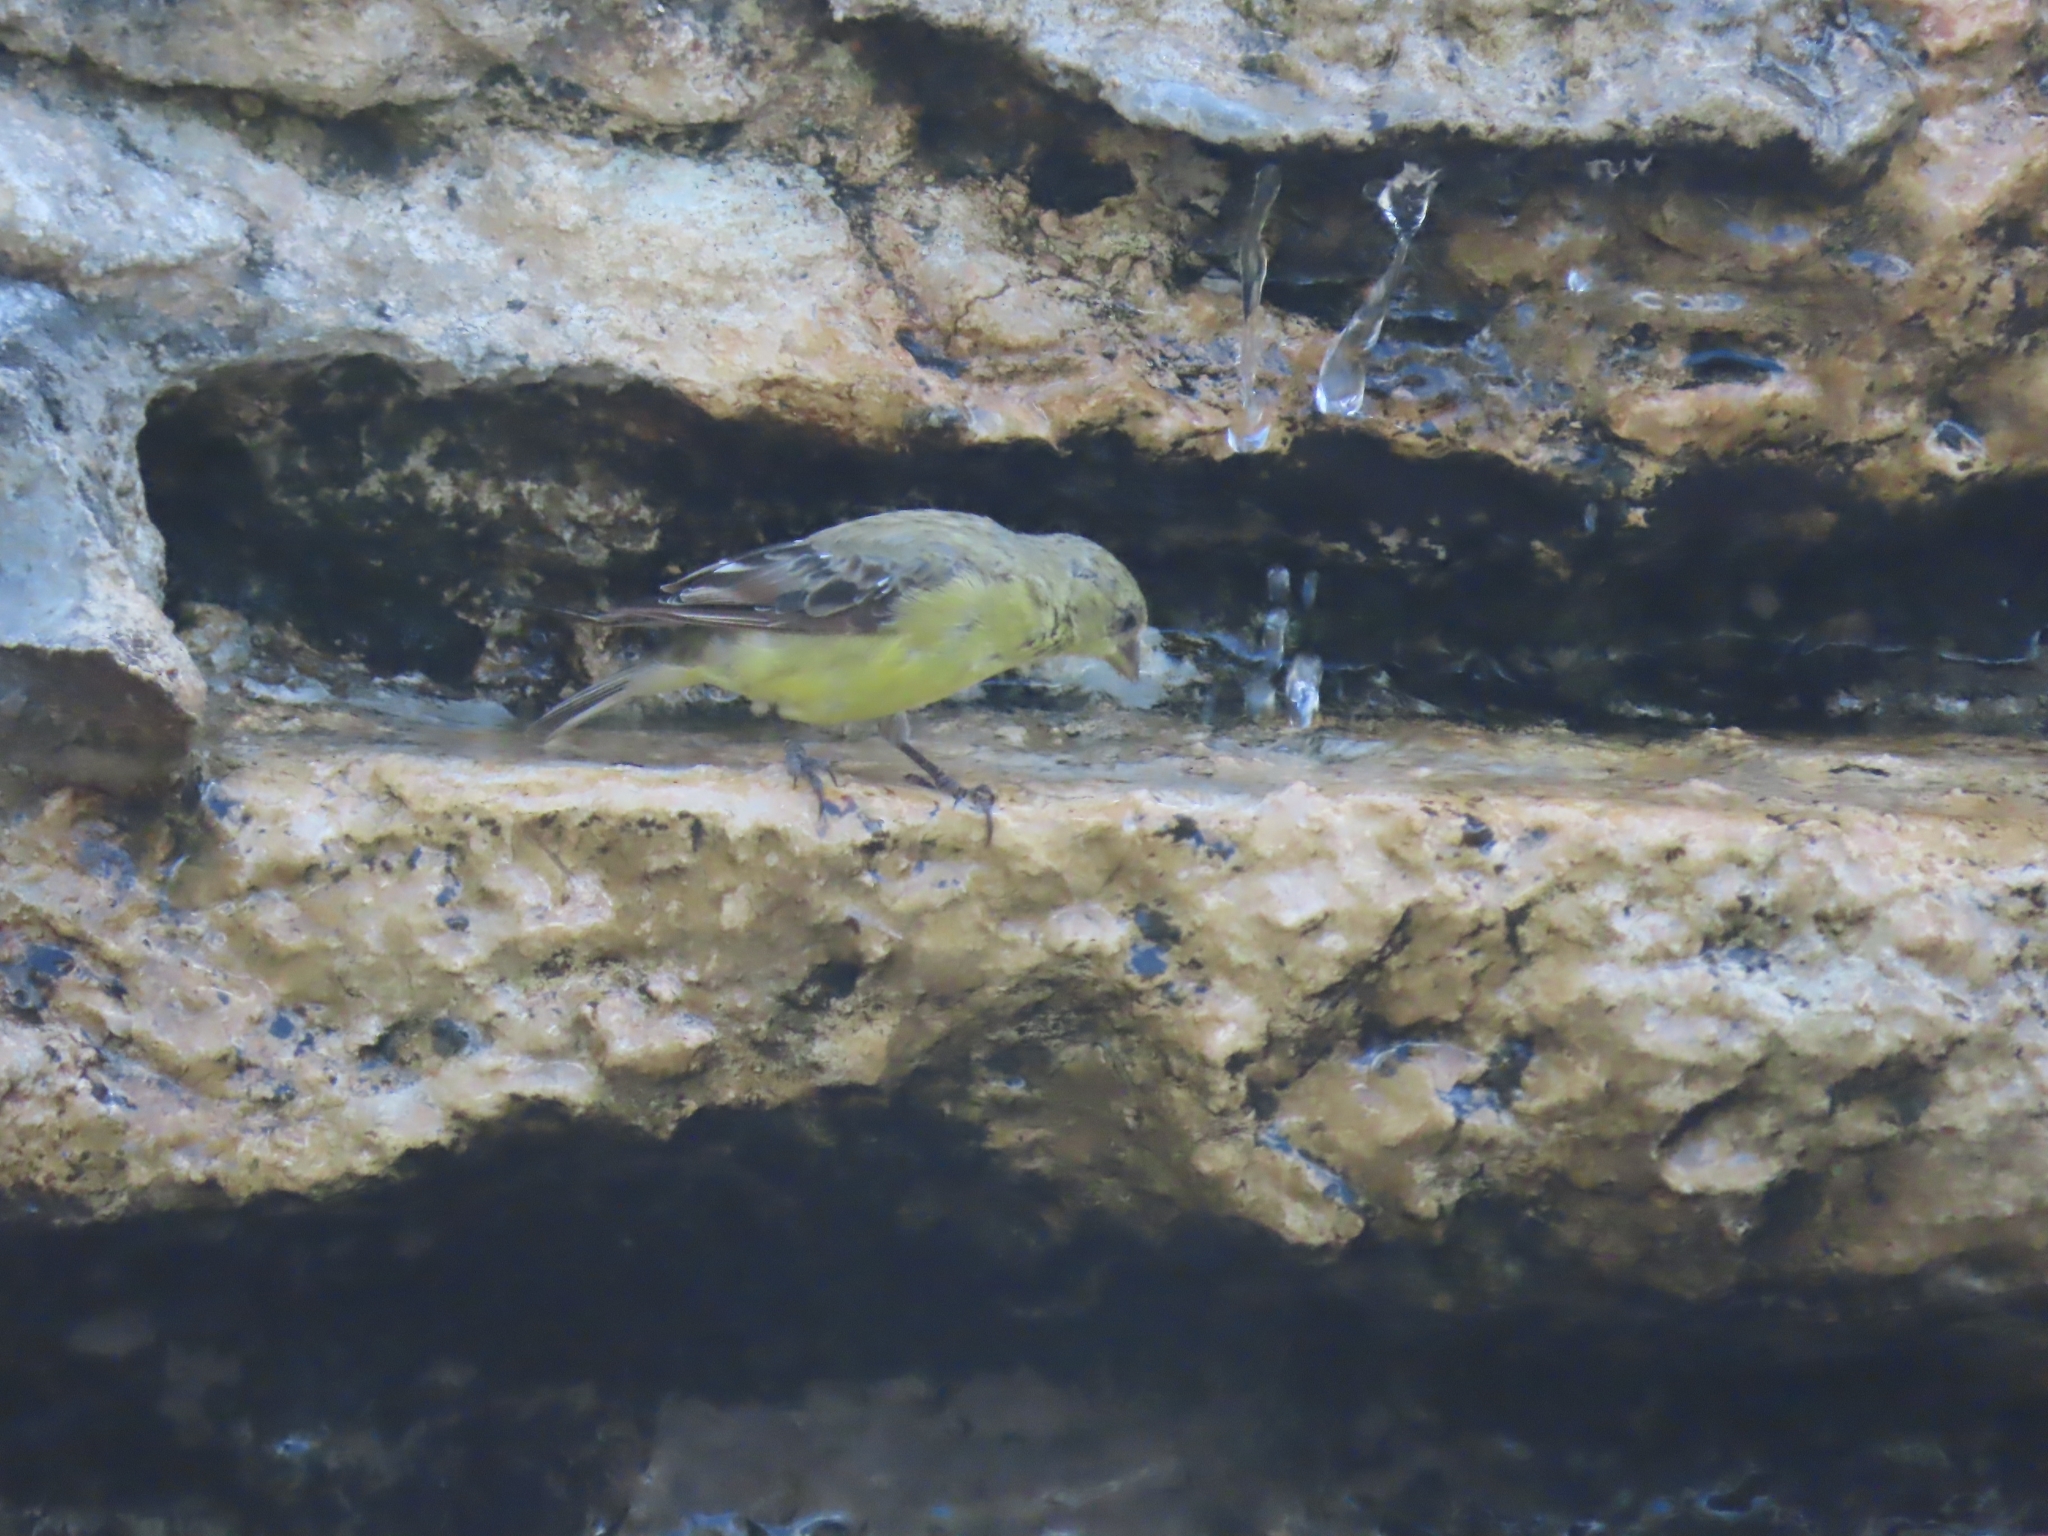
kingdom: Animalia
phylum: Chordata
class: Aves
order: Passeriformes
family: Fringillidae
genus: Spinus
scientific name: Spinus psaltria
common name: Lesser goldfinch
